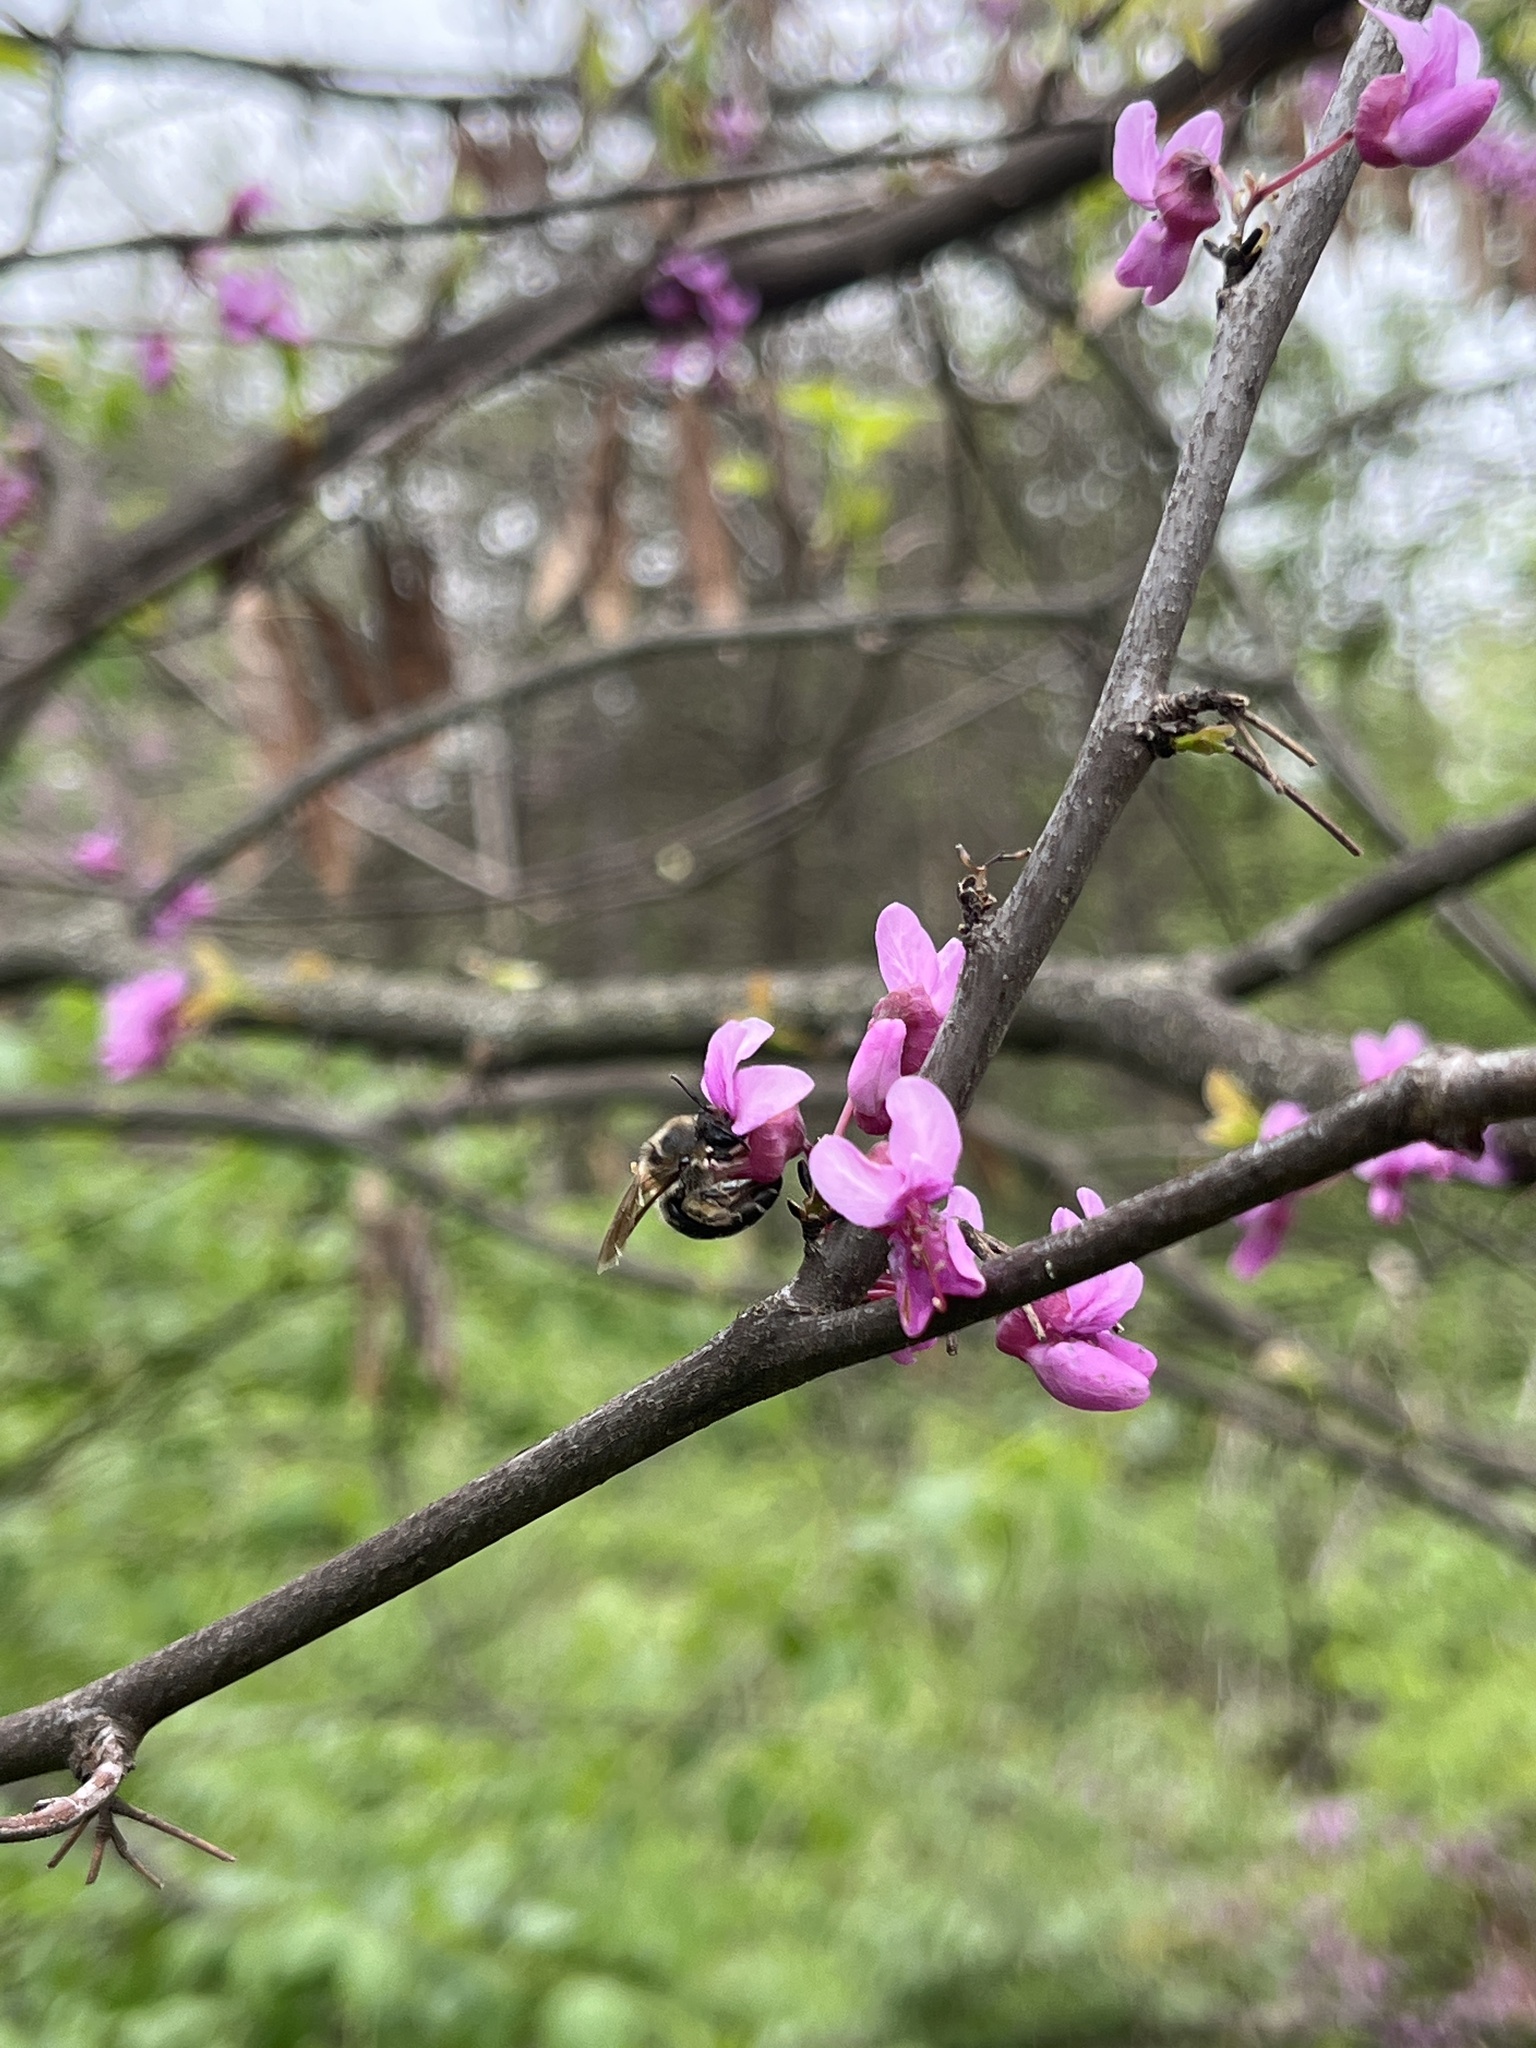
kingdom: Animalia
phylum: Arthropoda
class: Insecta
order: Hymenoptera
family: Colletidae
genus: Colletes
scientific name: Colletes inaequalis
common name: Unequal cellophane bee
